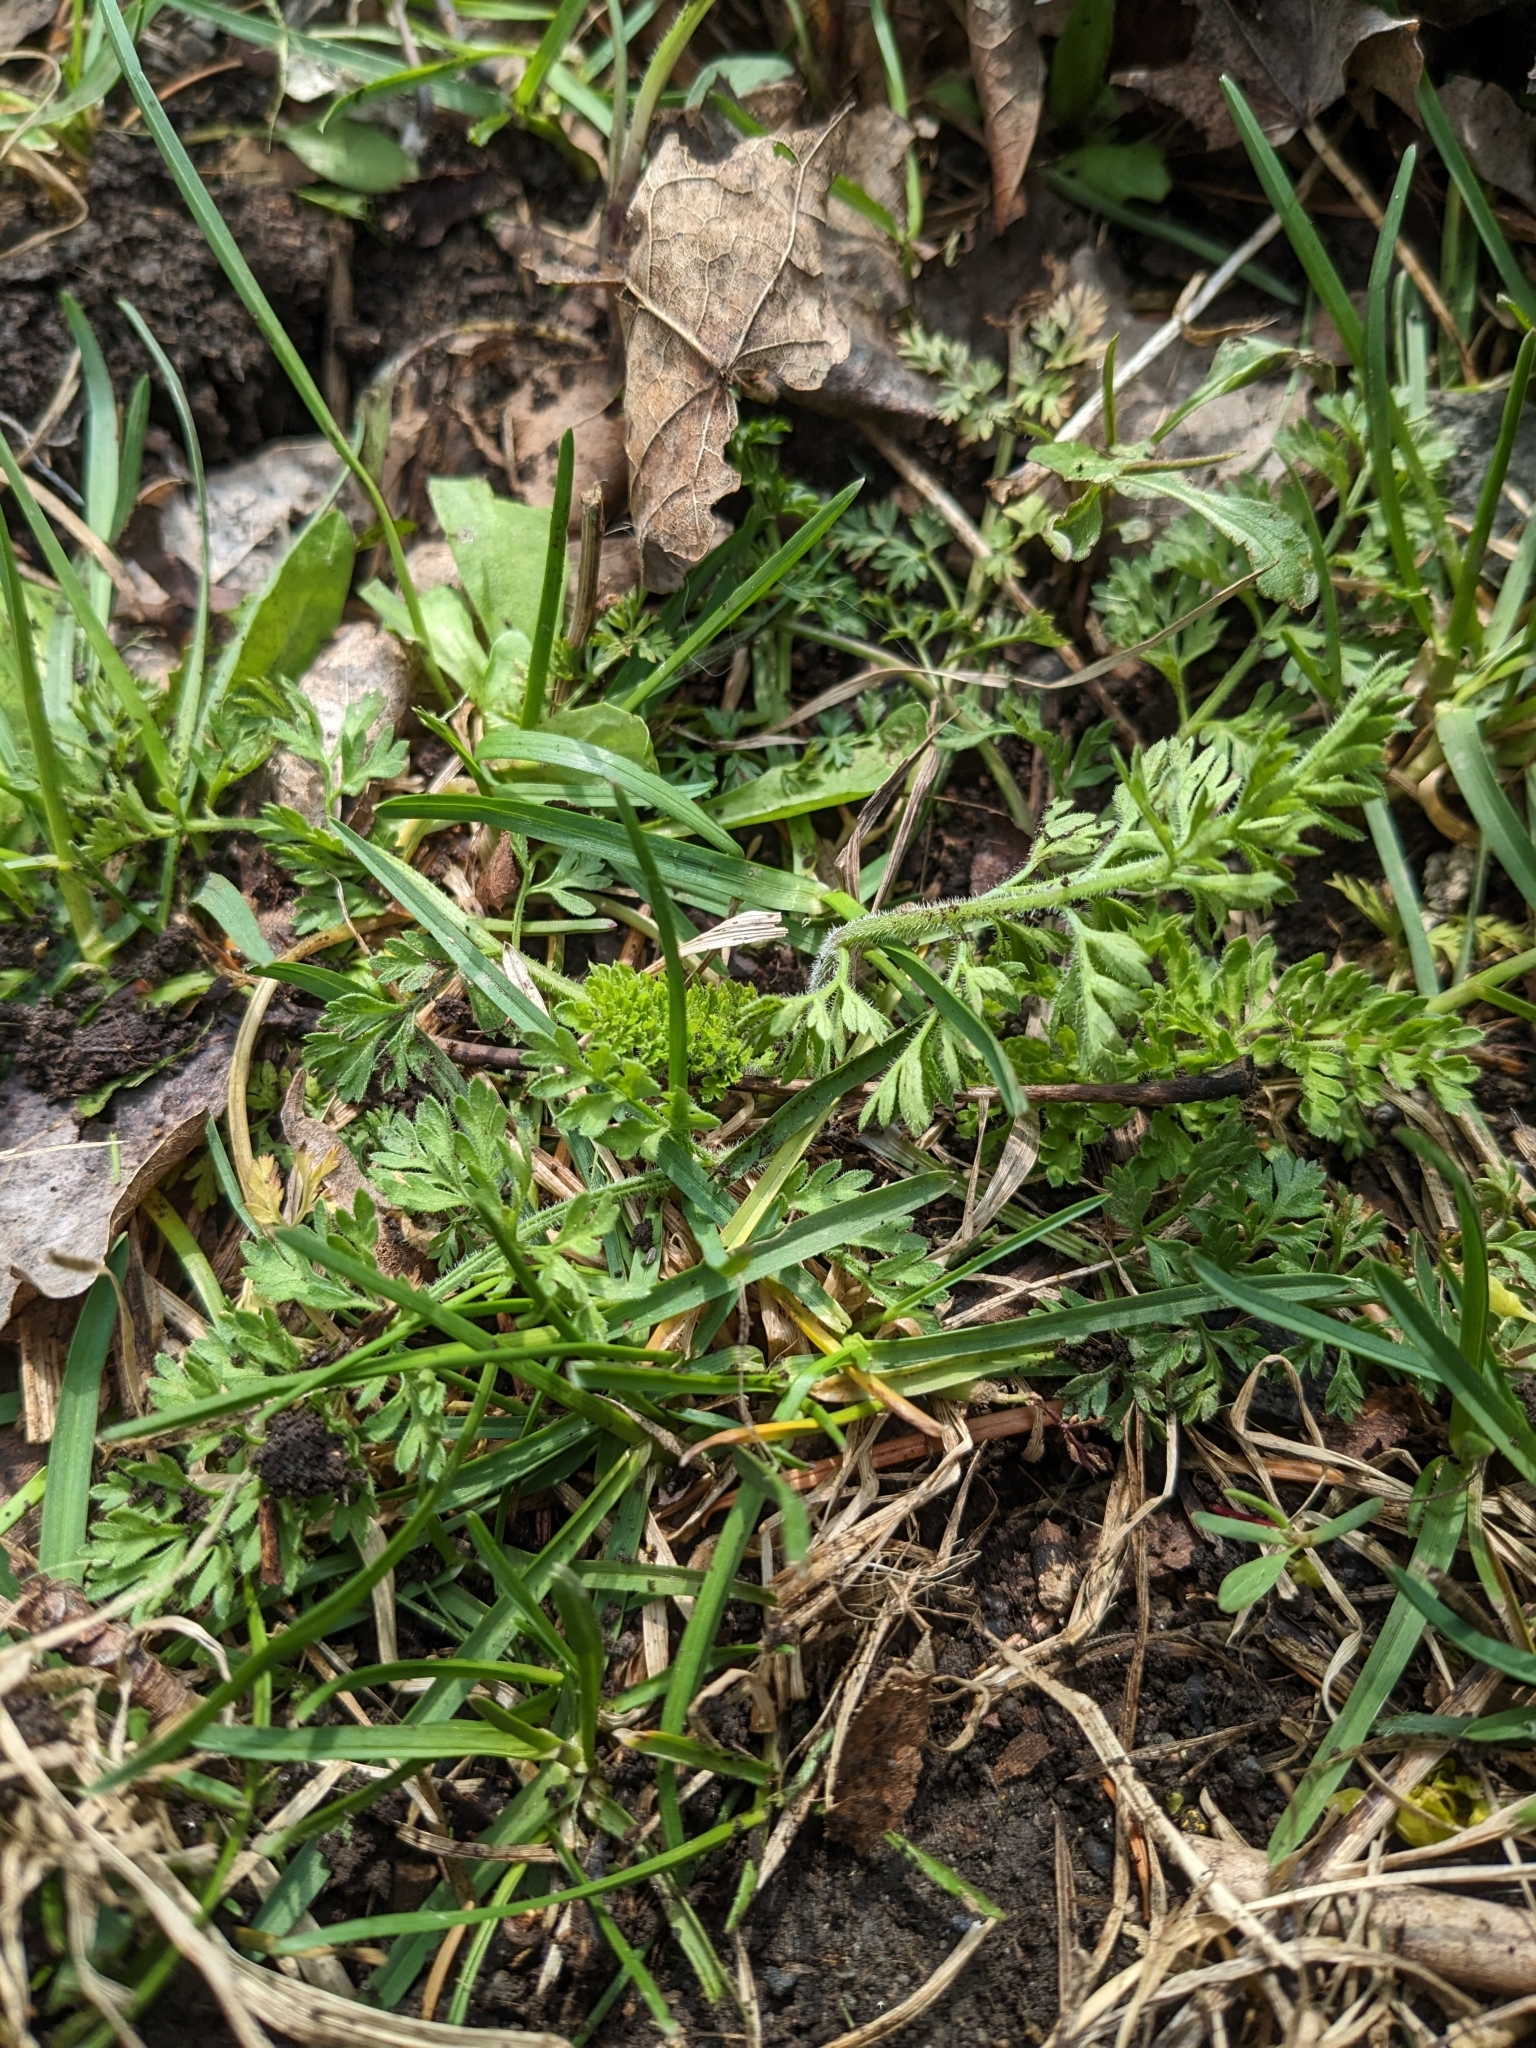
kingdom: Plantae
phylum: Tracheophyta
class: Magnoliopsida
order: Apiales
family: Apiaceae
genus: Daucus
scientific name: Daucus carota
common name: Wild carrot
